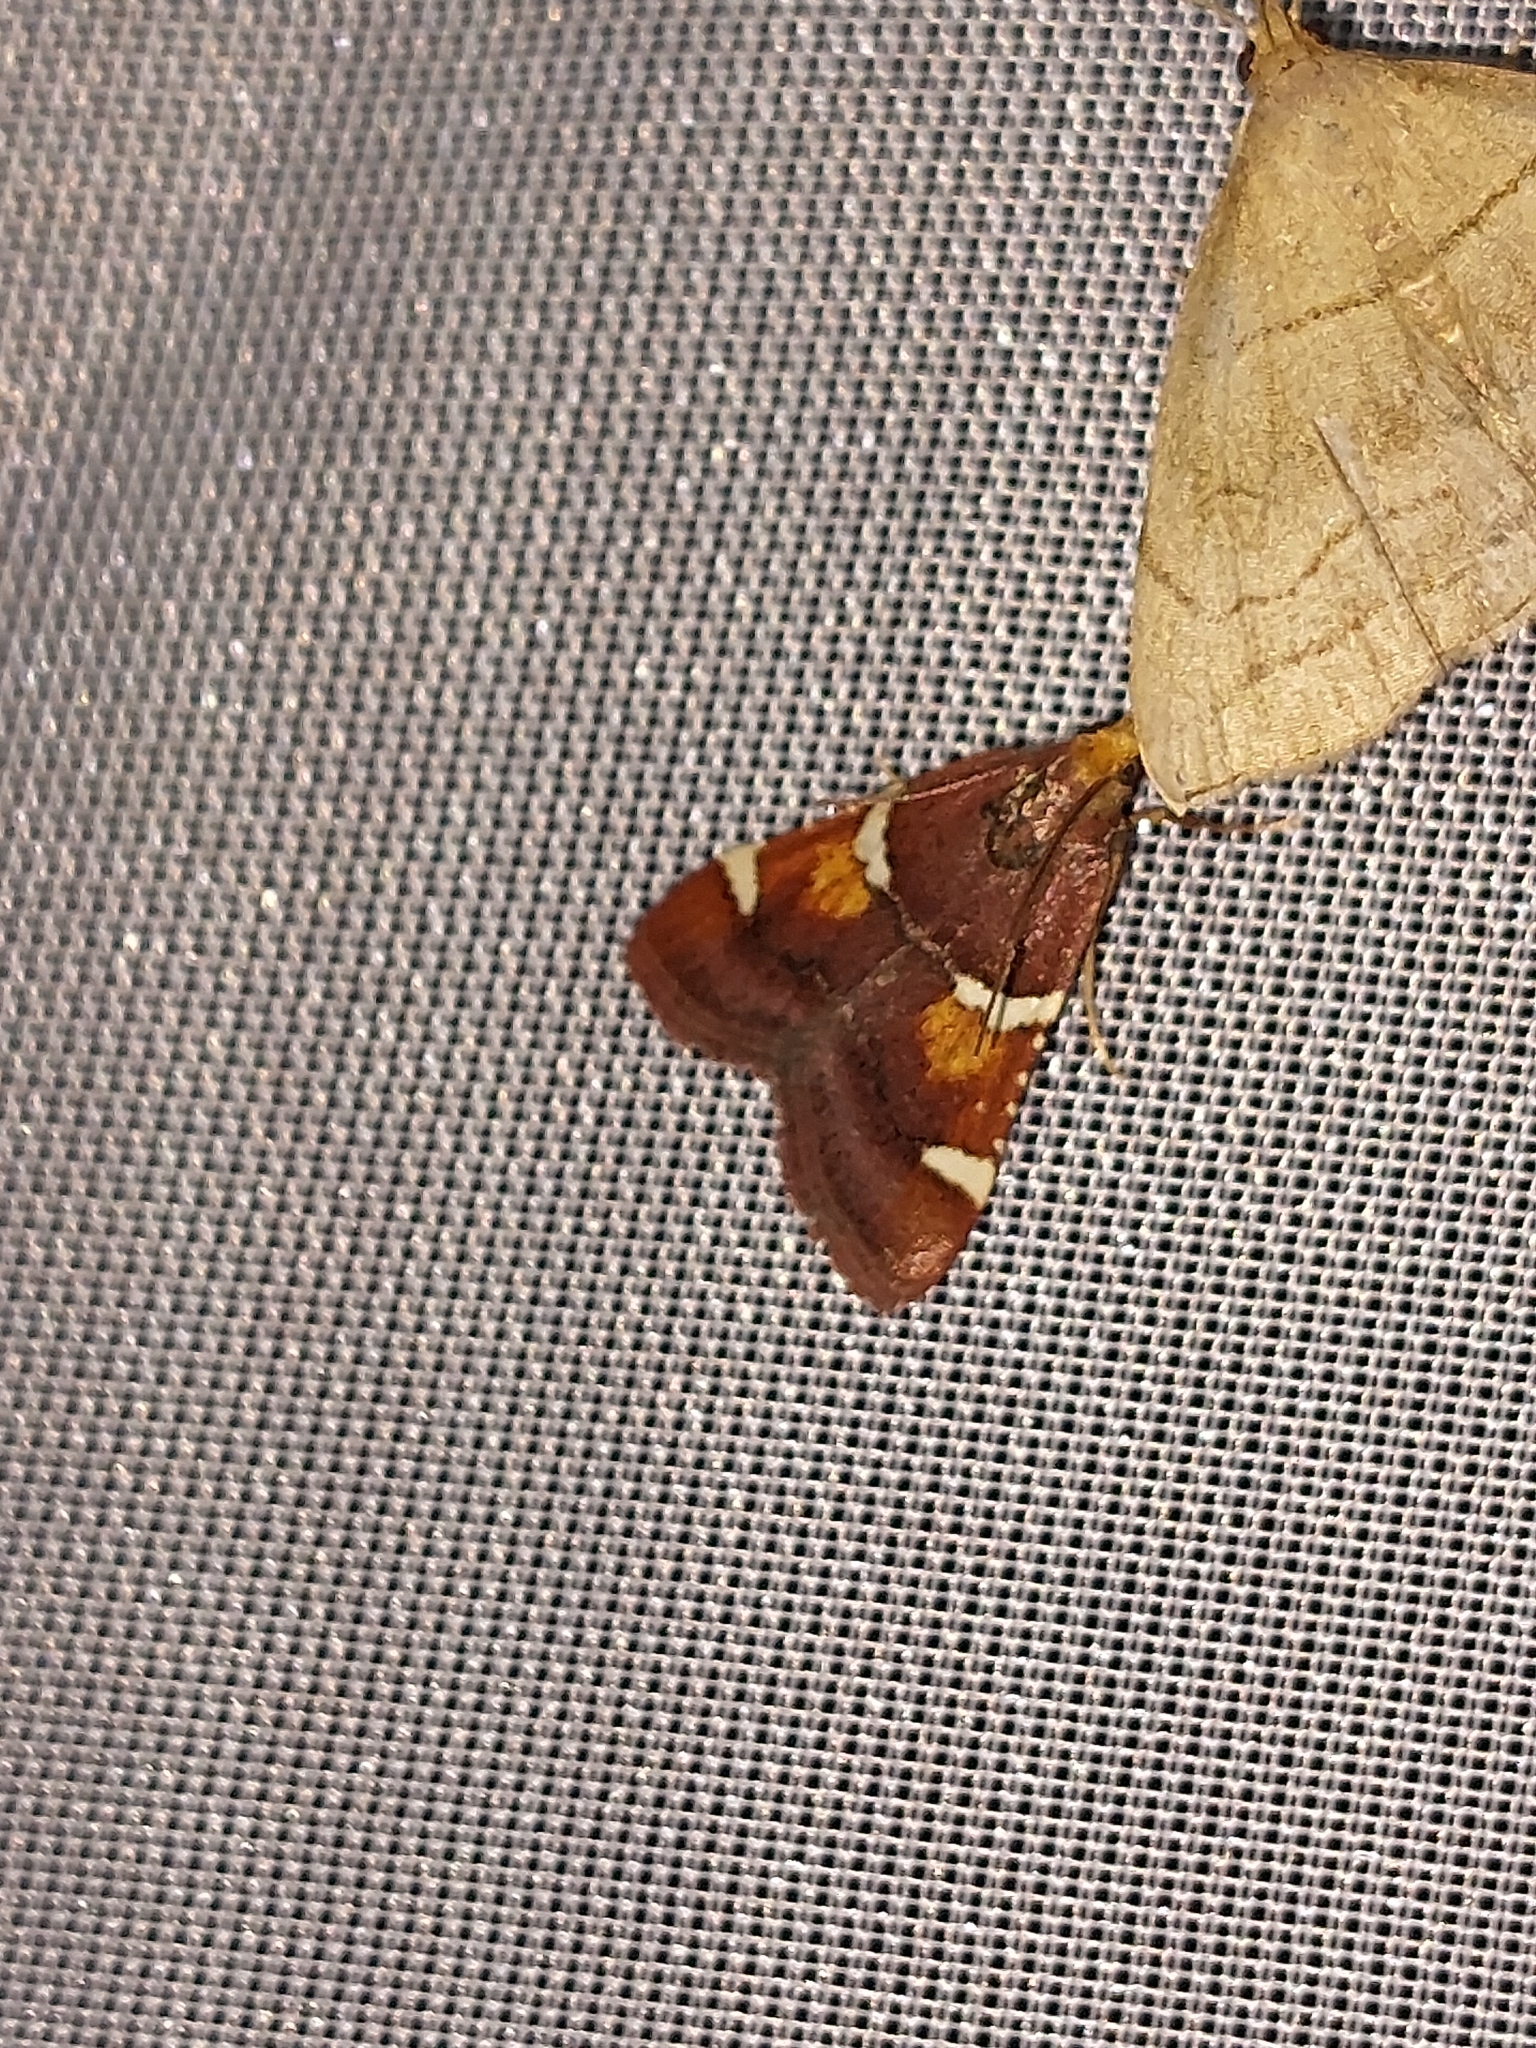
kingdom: Animalia
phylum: Arthropoda
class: Insecta
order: Lepidoptera
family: Pyralidae
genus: Pyralis
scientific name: Pyralis regalis
